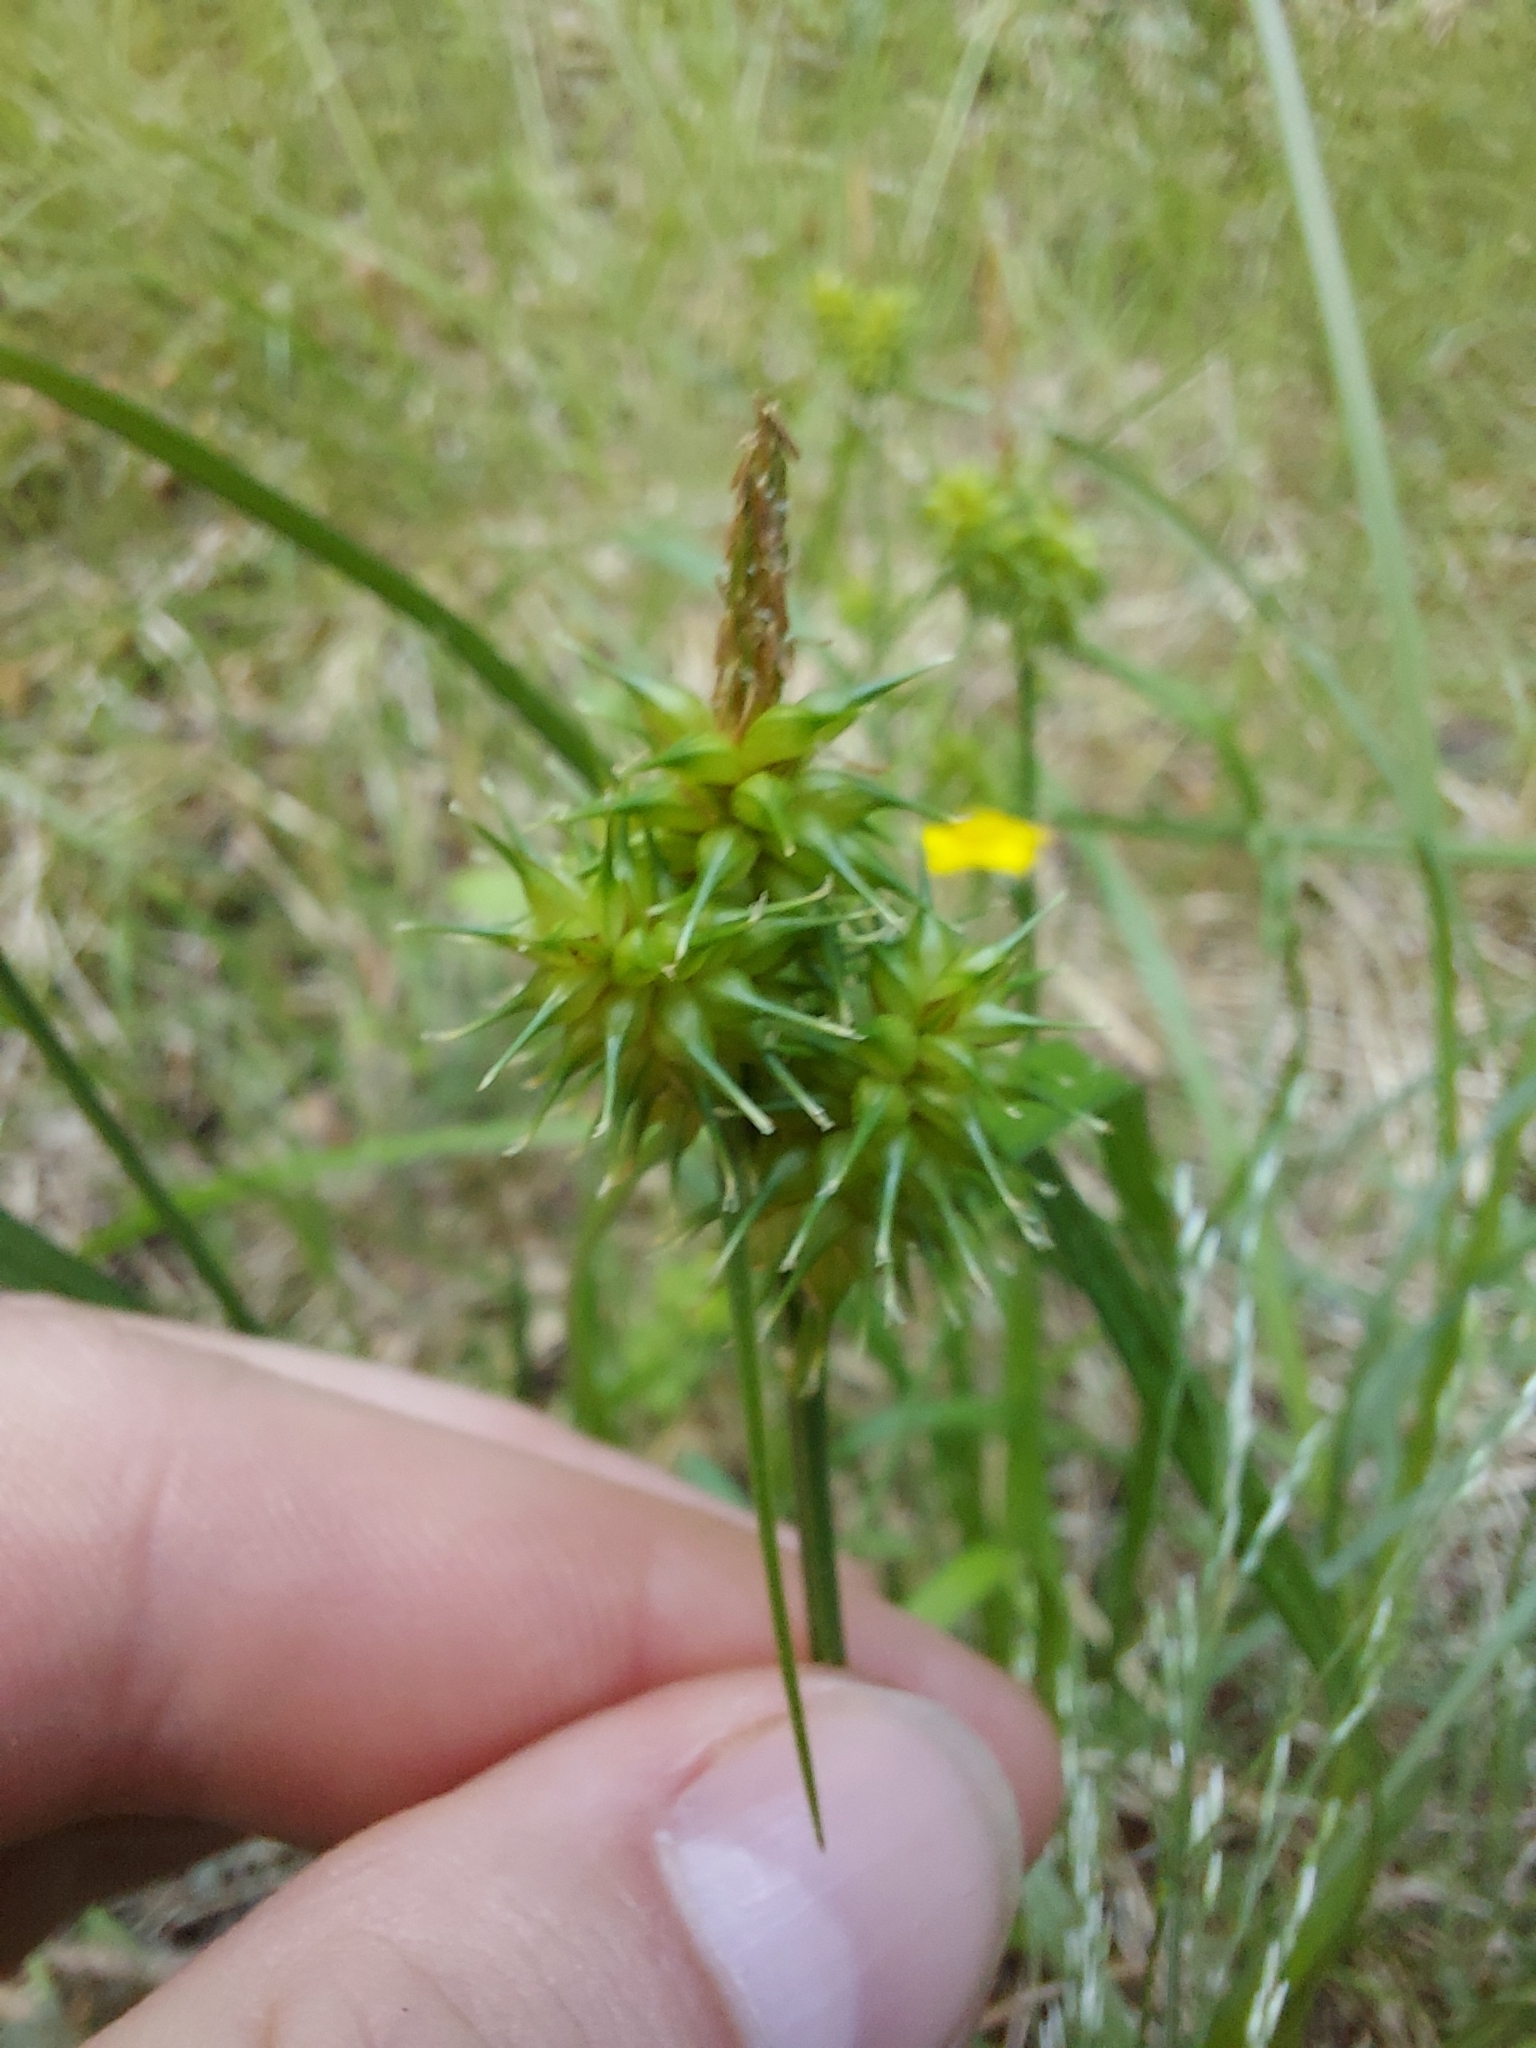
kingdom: Plantae
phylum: Tracheophyta
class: Liliopsida
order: Poales
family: Cyperaceae
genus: Carex
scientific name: Carex flava
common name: Large yellow-sedge
